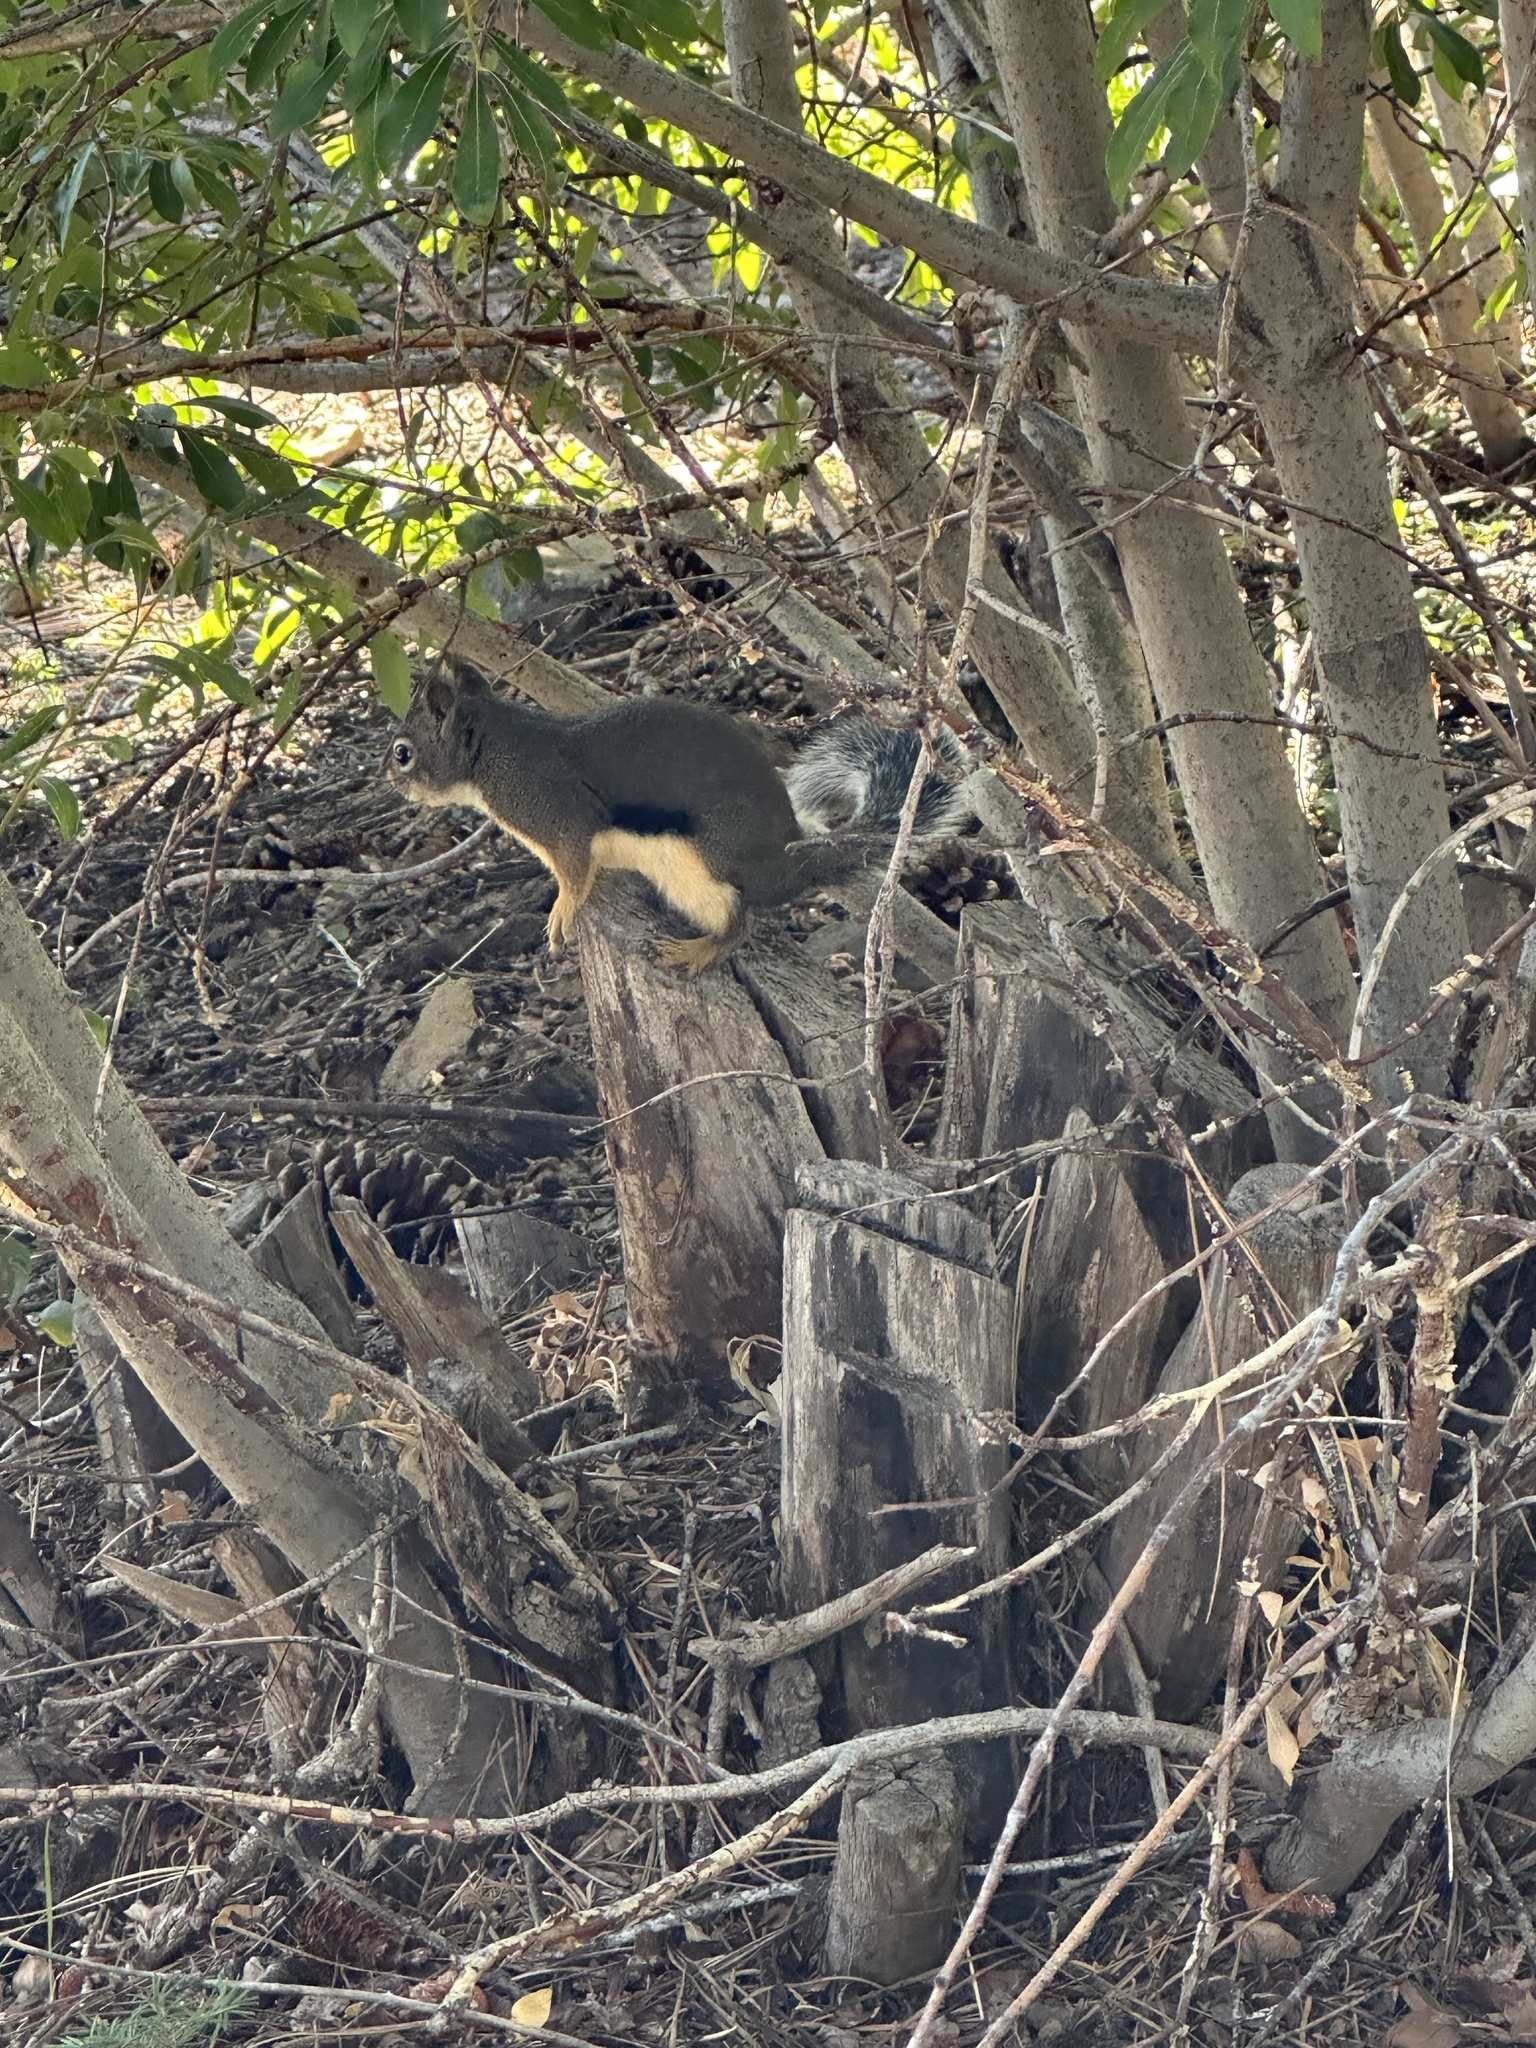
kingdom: Animalia
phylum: Chordata
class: Mammalia
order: Rodentia
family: Sciuridae
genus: Tamiasciurus
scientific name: Tamiasciurus douglasii
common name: Douglas's squirrel
